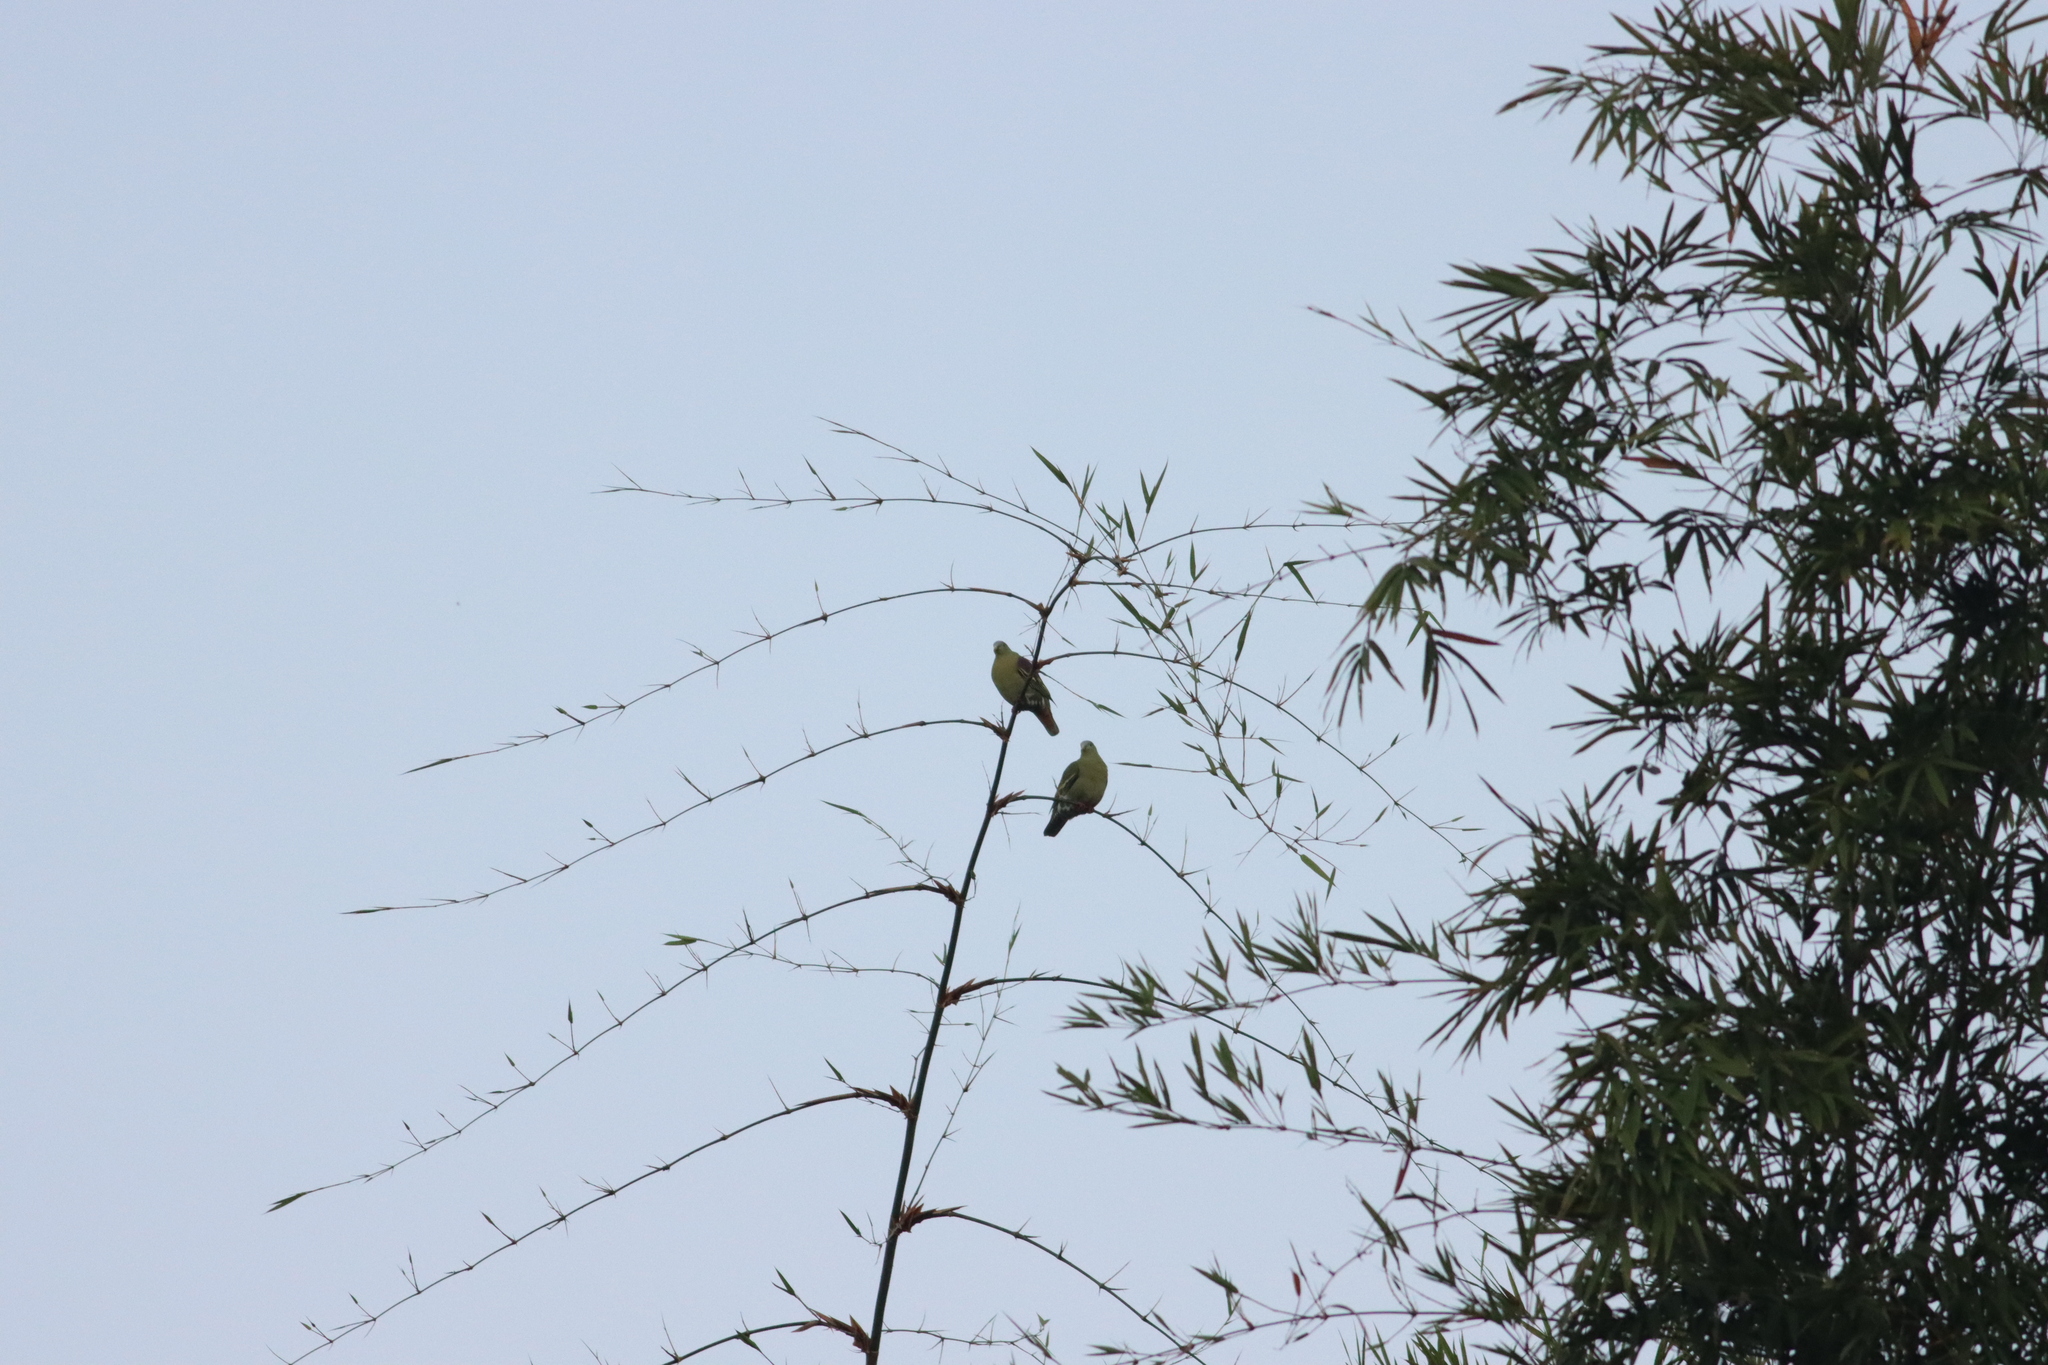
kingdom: Animalia
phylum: Chordata
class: Aves
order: Columbiformes
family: Columbidae
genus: Treron
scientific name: Treron phayrei
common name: Ashy-headed green pigeon
